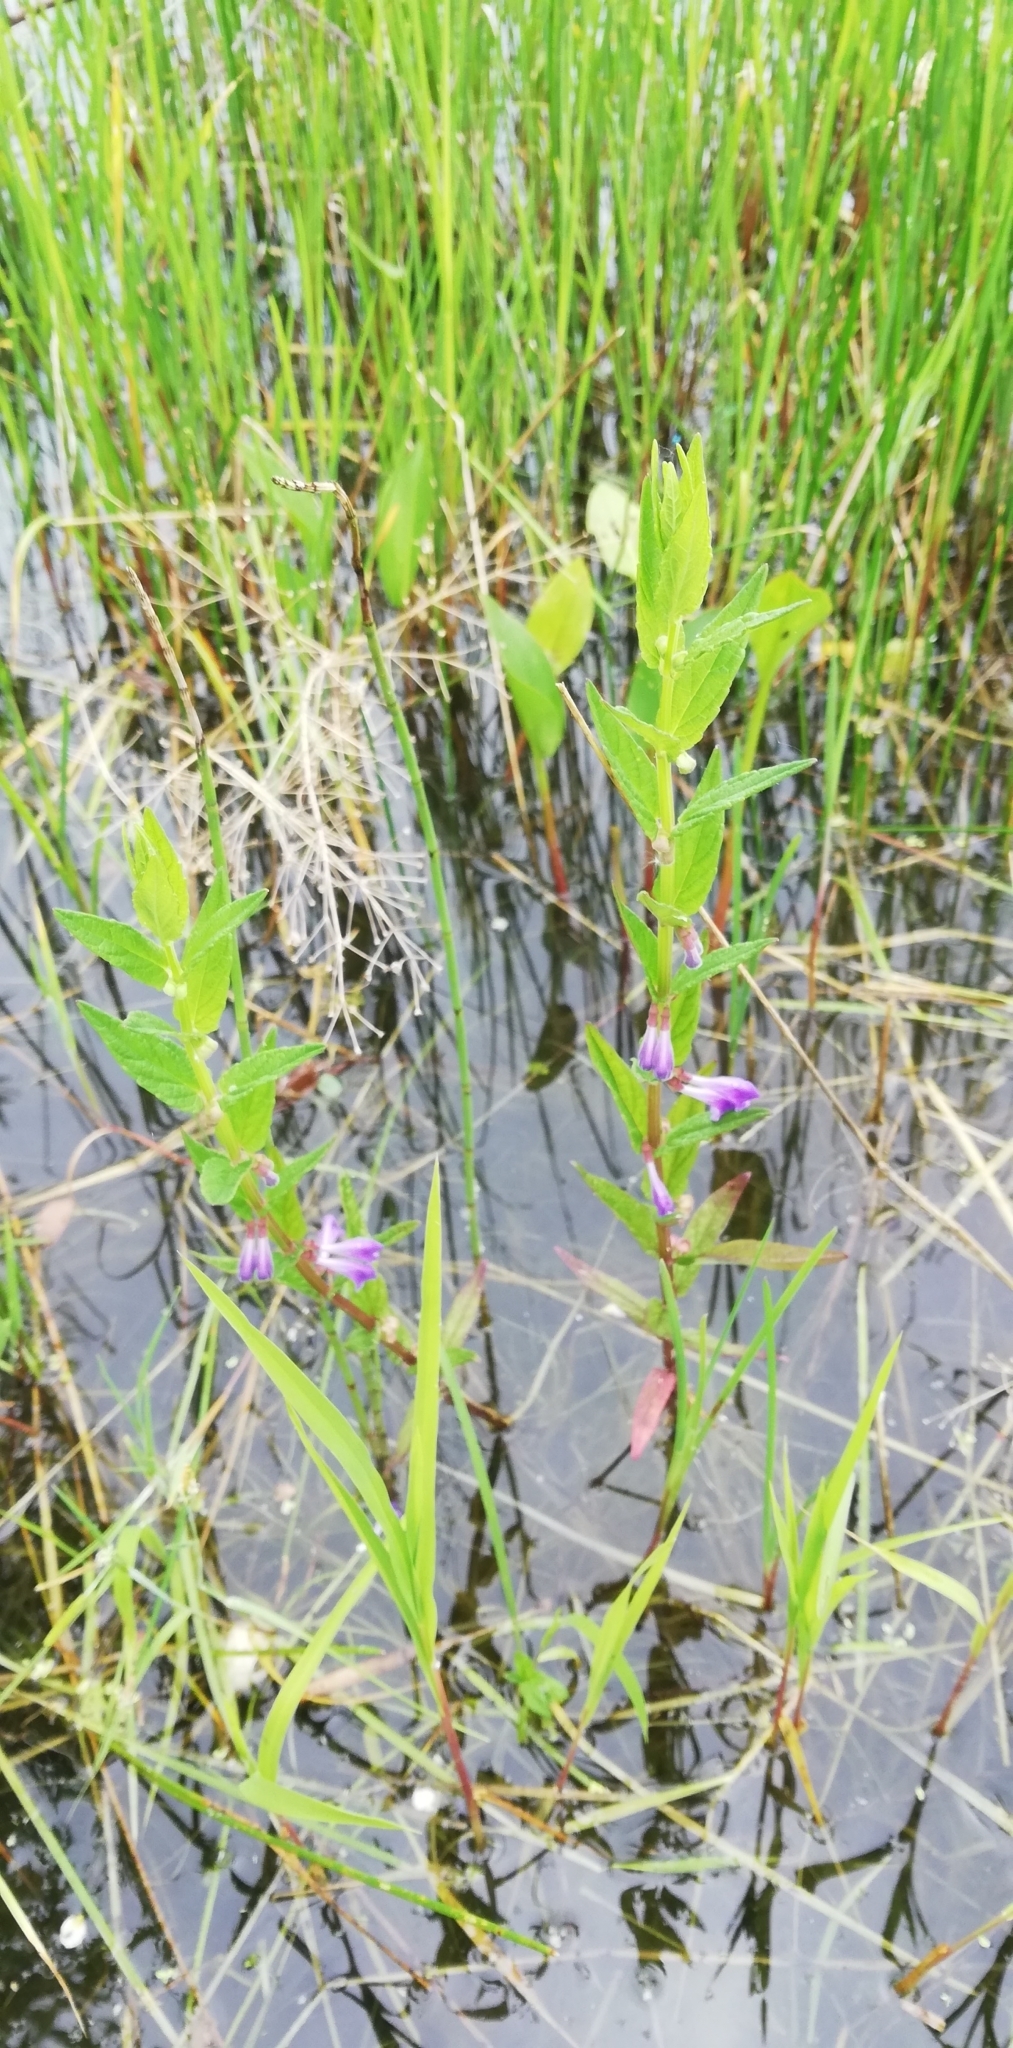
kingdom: Plantae
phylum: Tracheophyta
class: Magnoliopsida
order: Lamiales
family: Lamiaceae
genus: Scutellaria
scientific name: Scutellaria galericulata
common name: Skullcap
